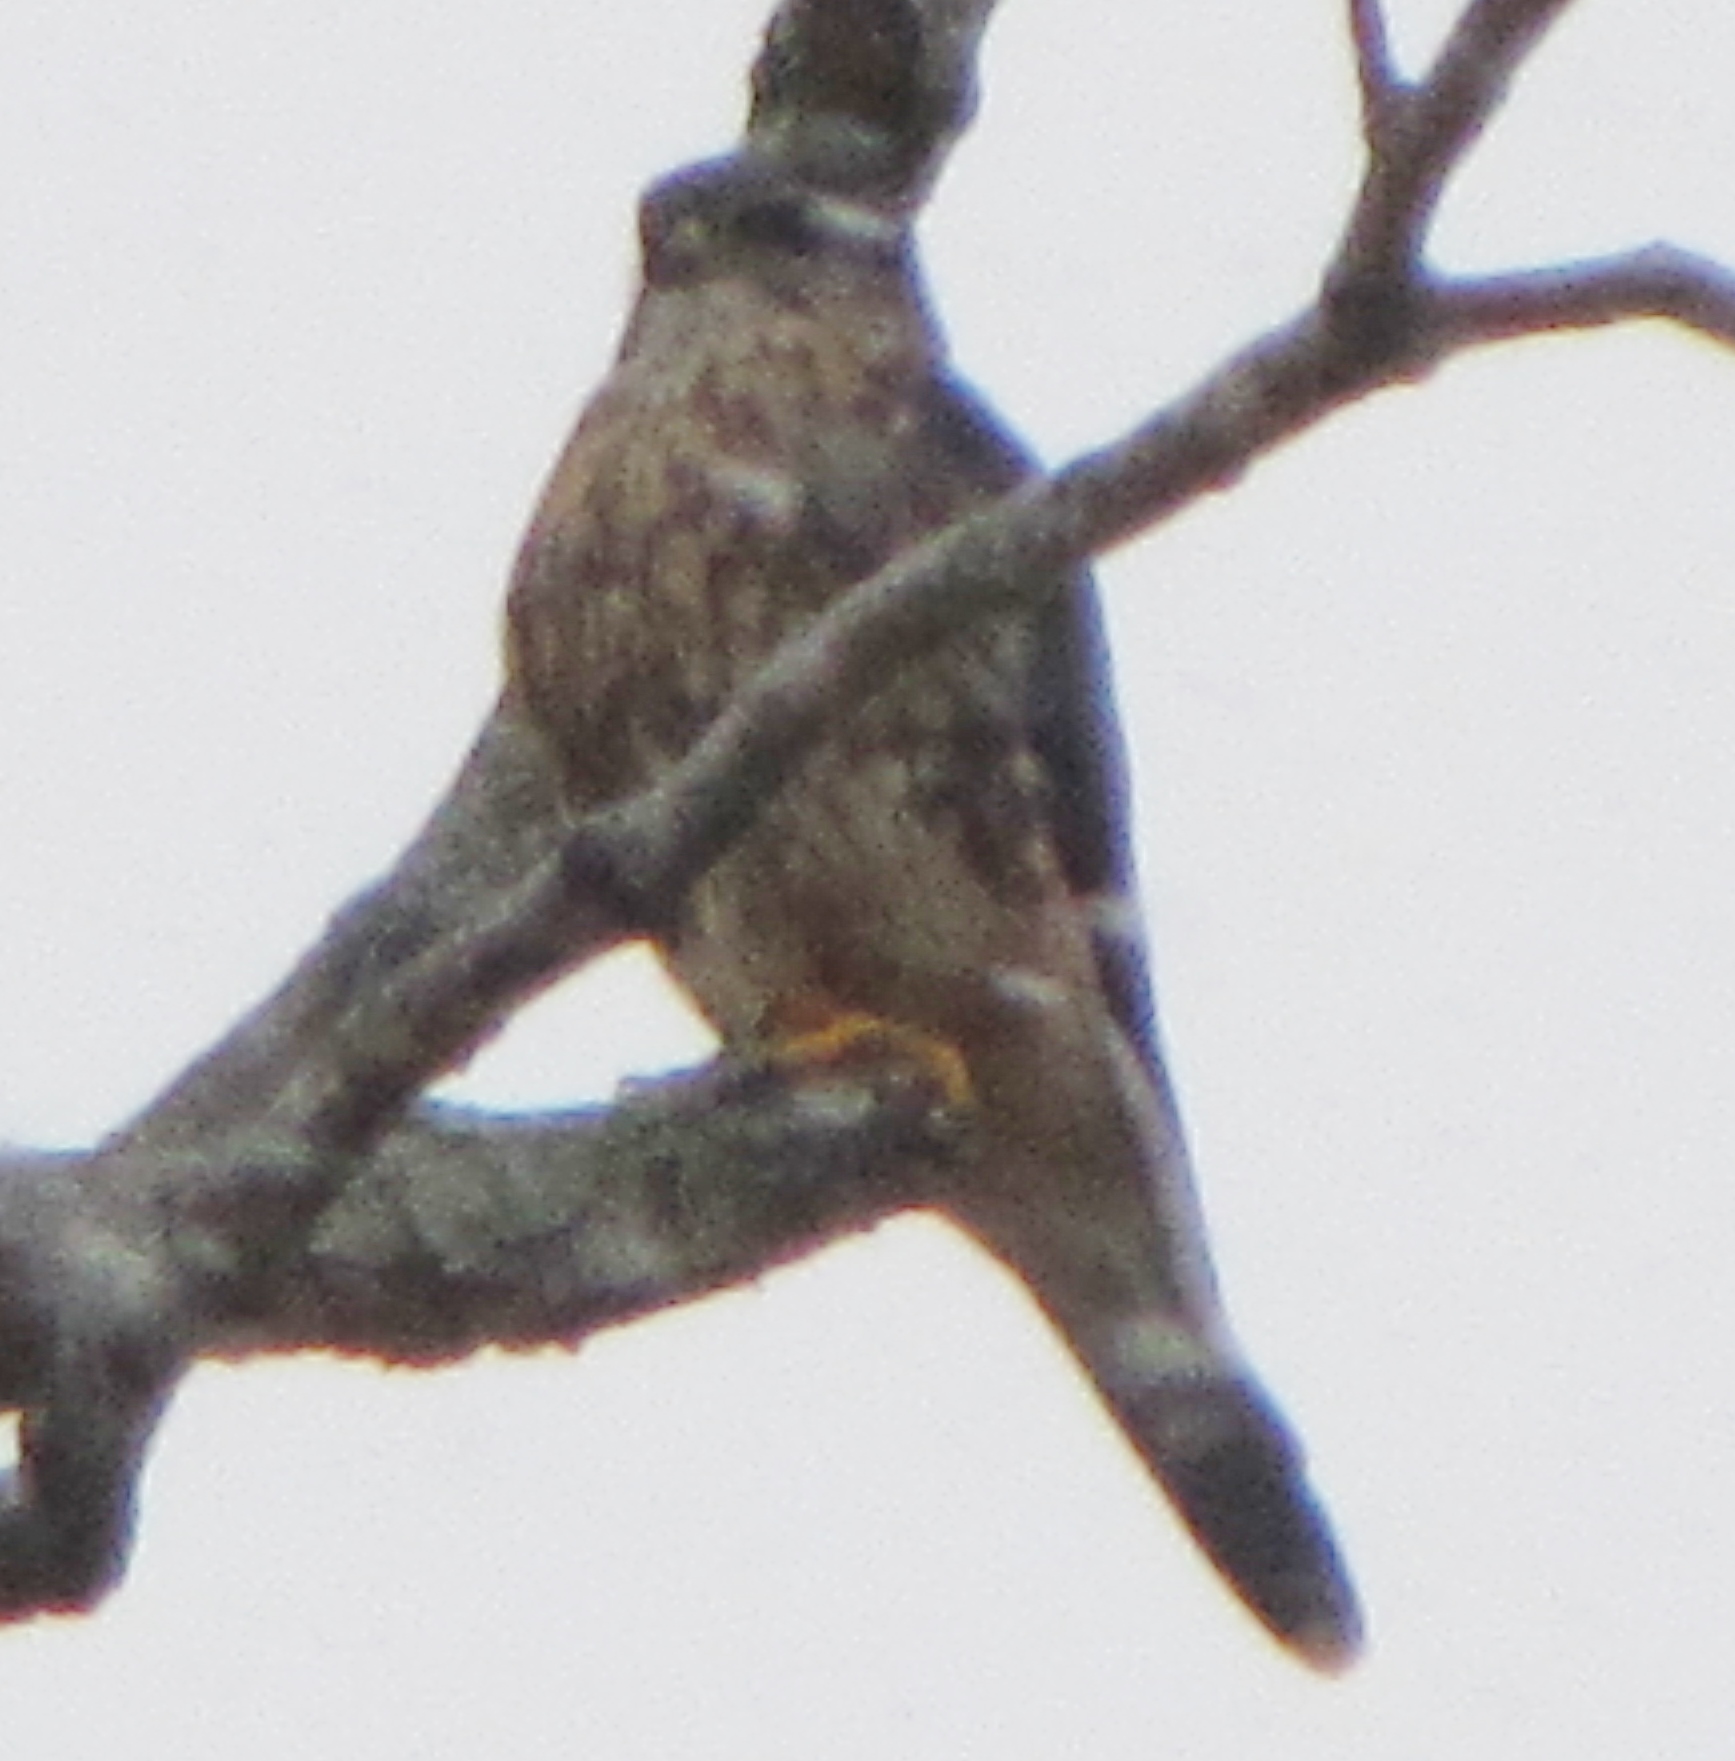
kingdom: Animalia
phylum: Chordata
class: Aves
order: Falconiformes
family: Falconidae
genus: Falco
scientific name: Falco columbarius
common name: Merlin
